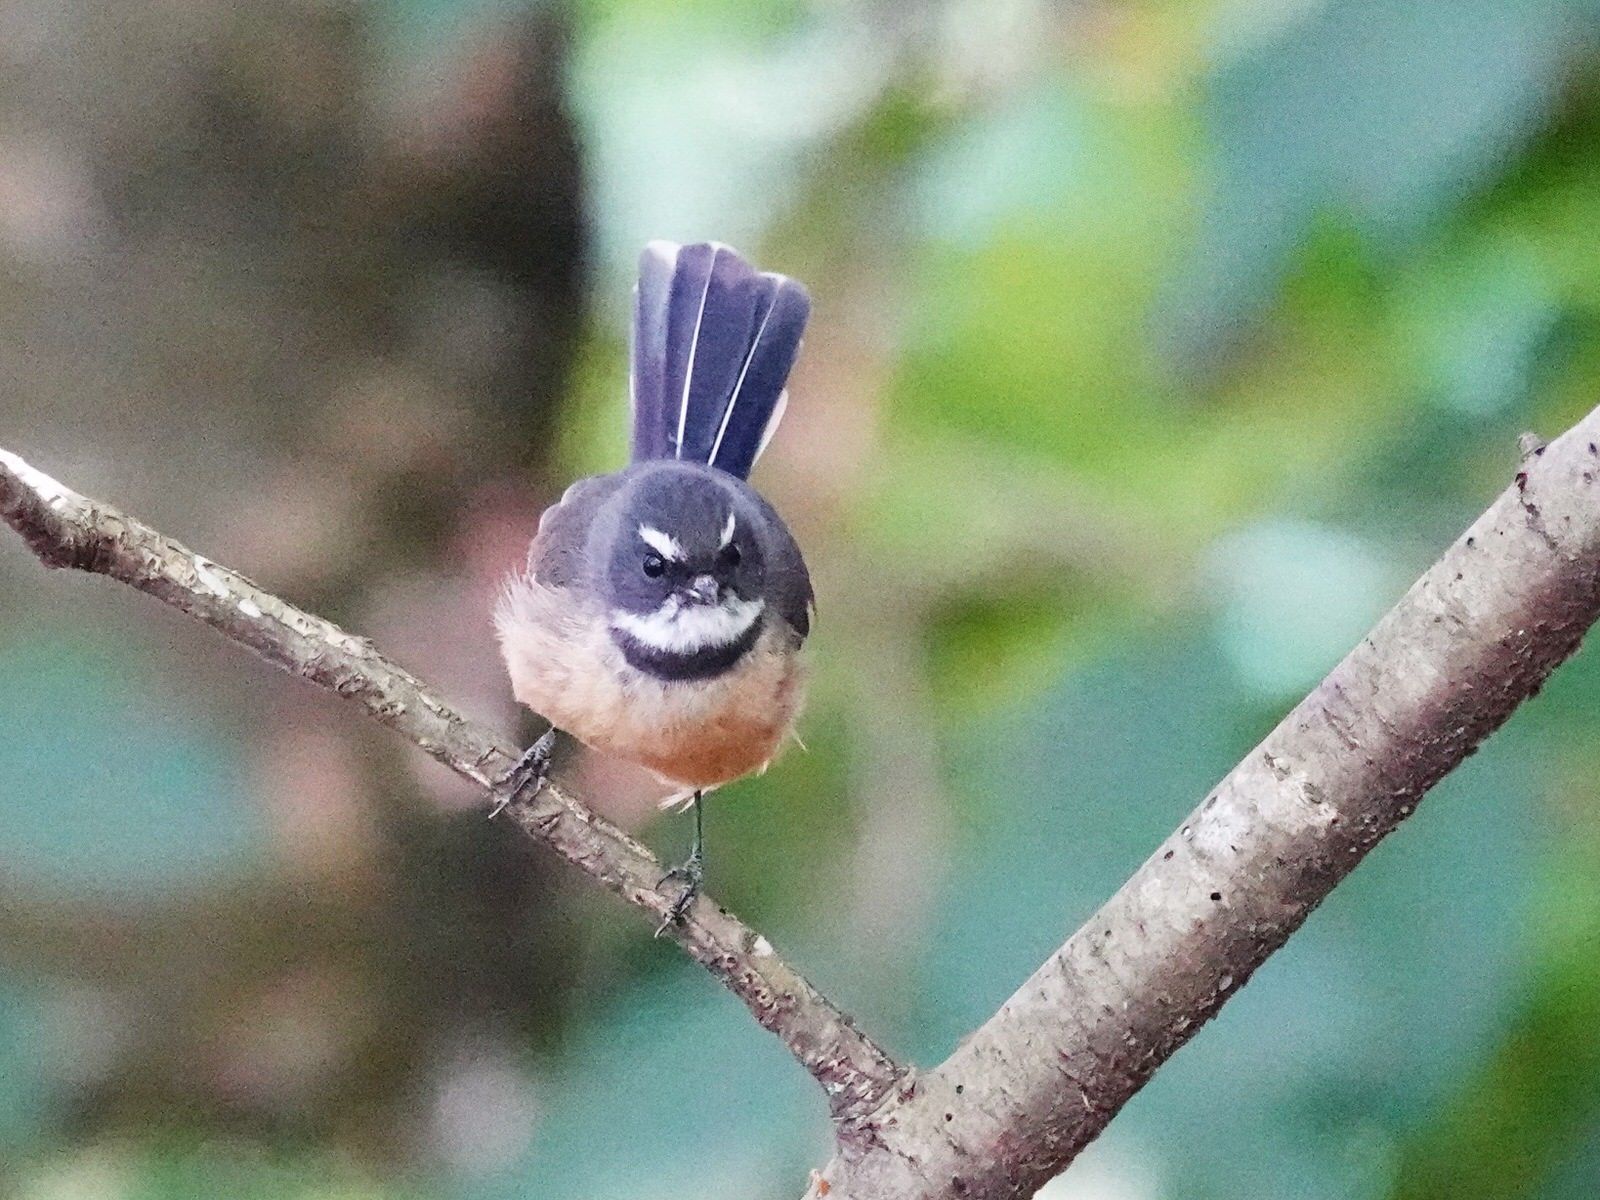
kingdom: Animalia
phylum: Chordata
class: Aves
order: Passeriformes
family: Rhipiduridae
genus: Rhipidura
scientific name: Rhipidura fuliginosa
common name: New zealand fantail
